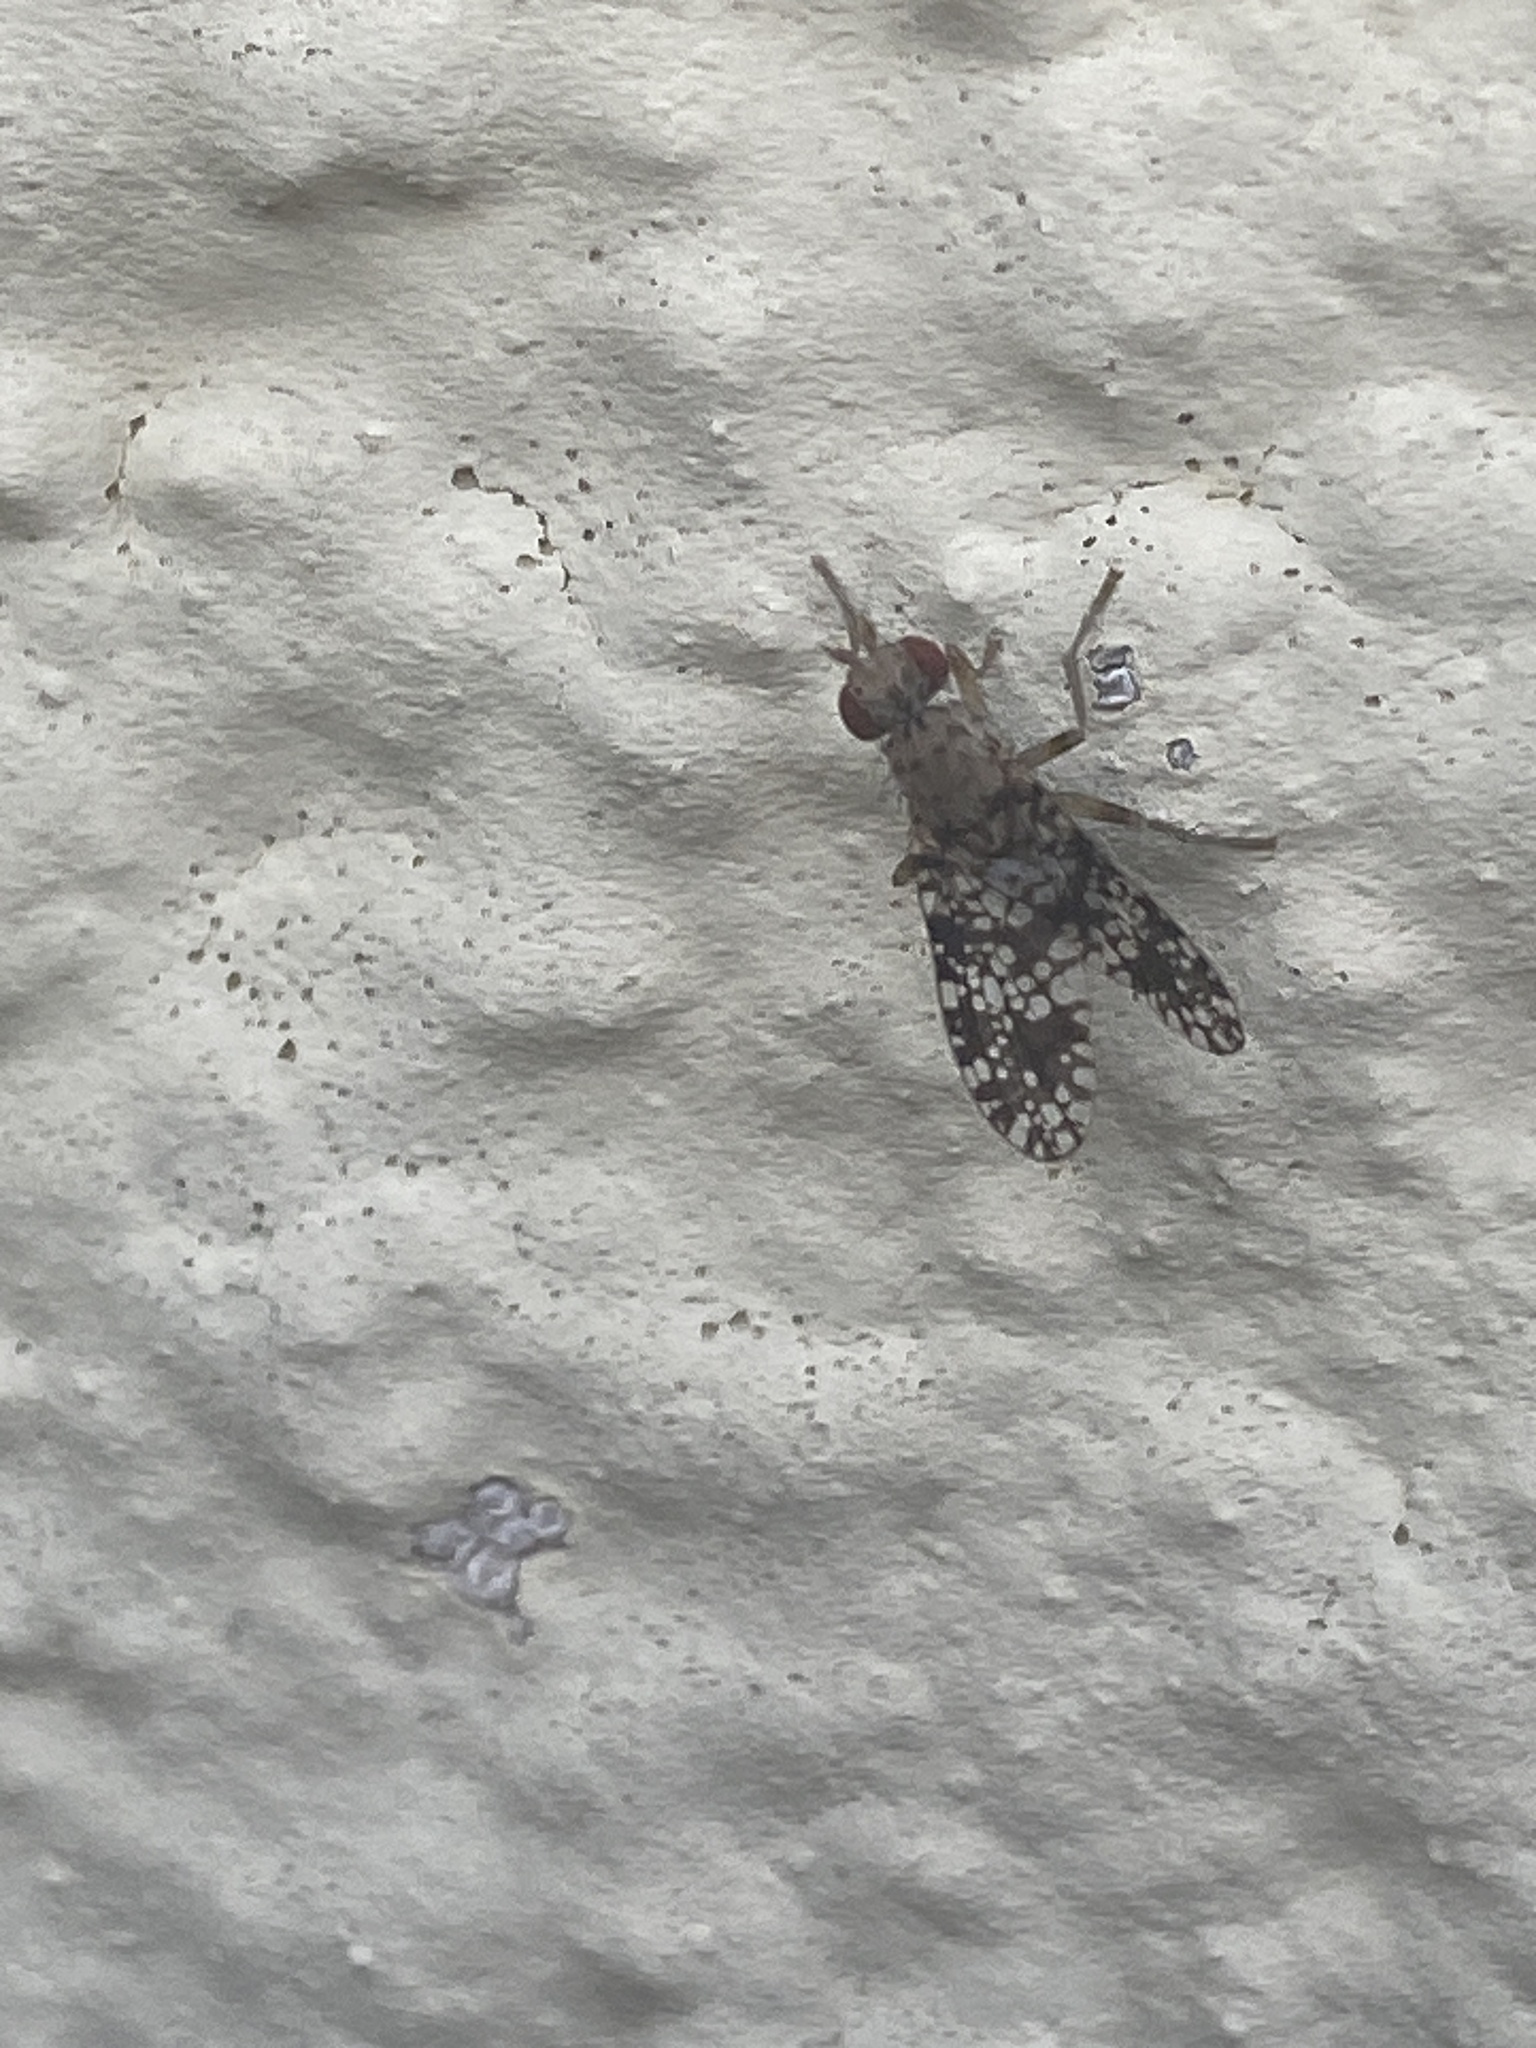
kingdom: Animalia
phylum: Arthropoda
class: Insecta
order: Diptera
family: Sciomyzidae
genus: Trypetoptera
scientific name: Trypetoptera punctulata
